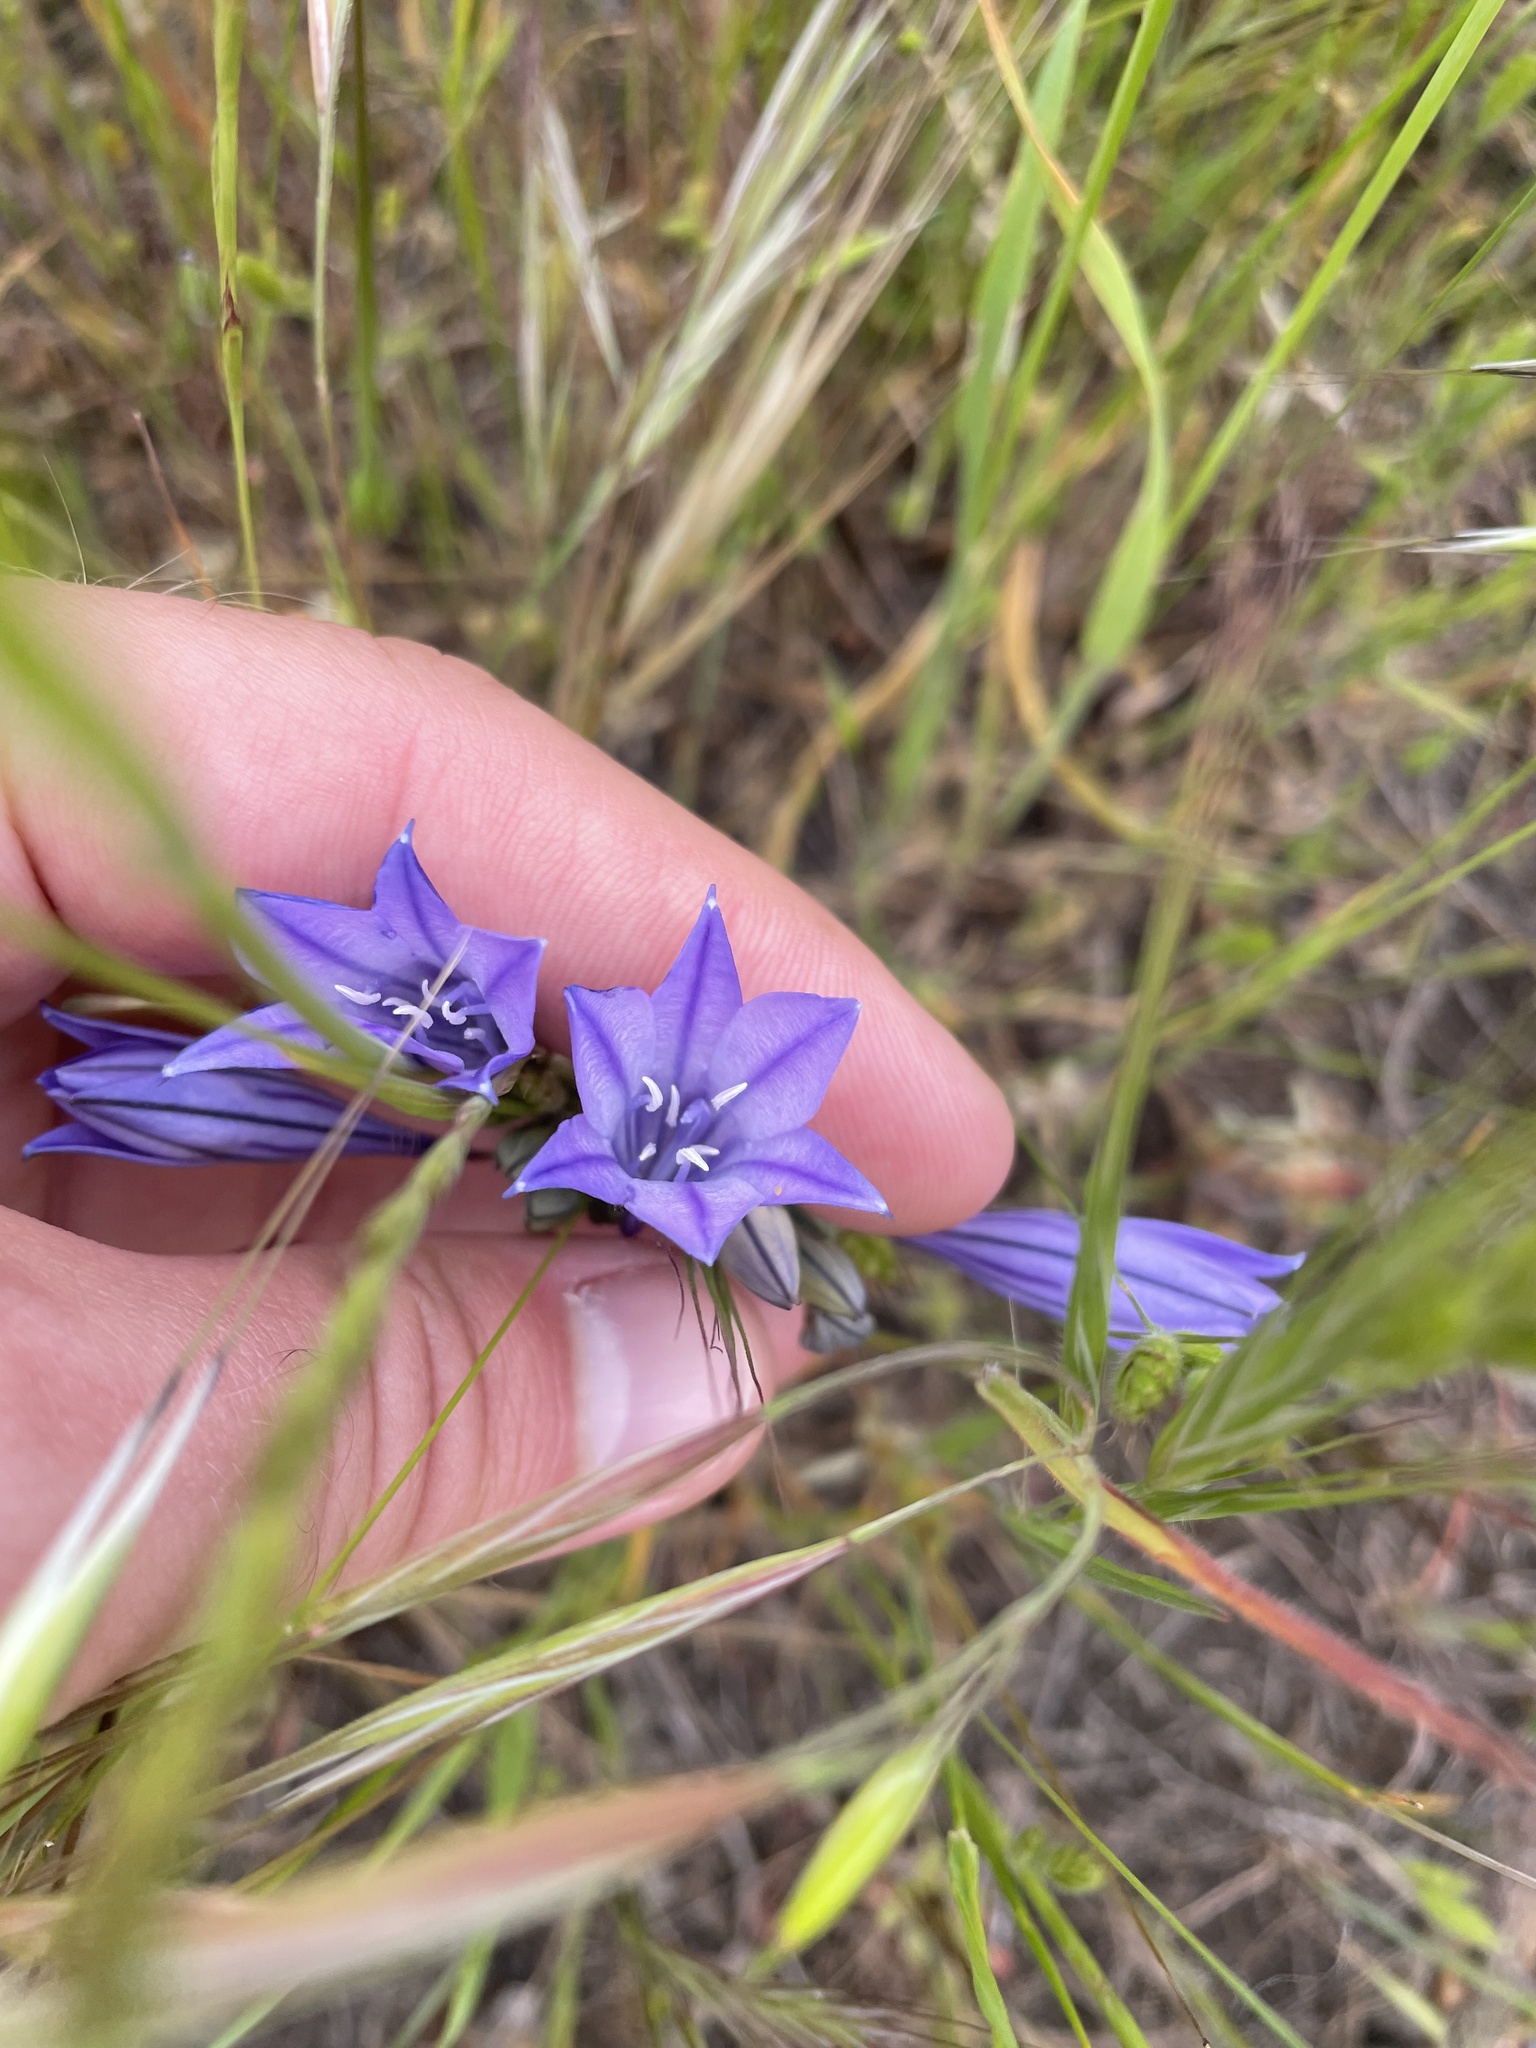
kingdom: Plantae
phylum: Tracheophyta
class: Liliopsida
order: Asparagales
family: Asparagaceae
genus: Triteleia
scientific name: Triteleia laxa
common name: Triplet-lily
